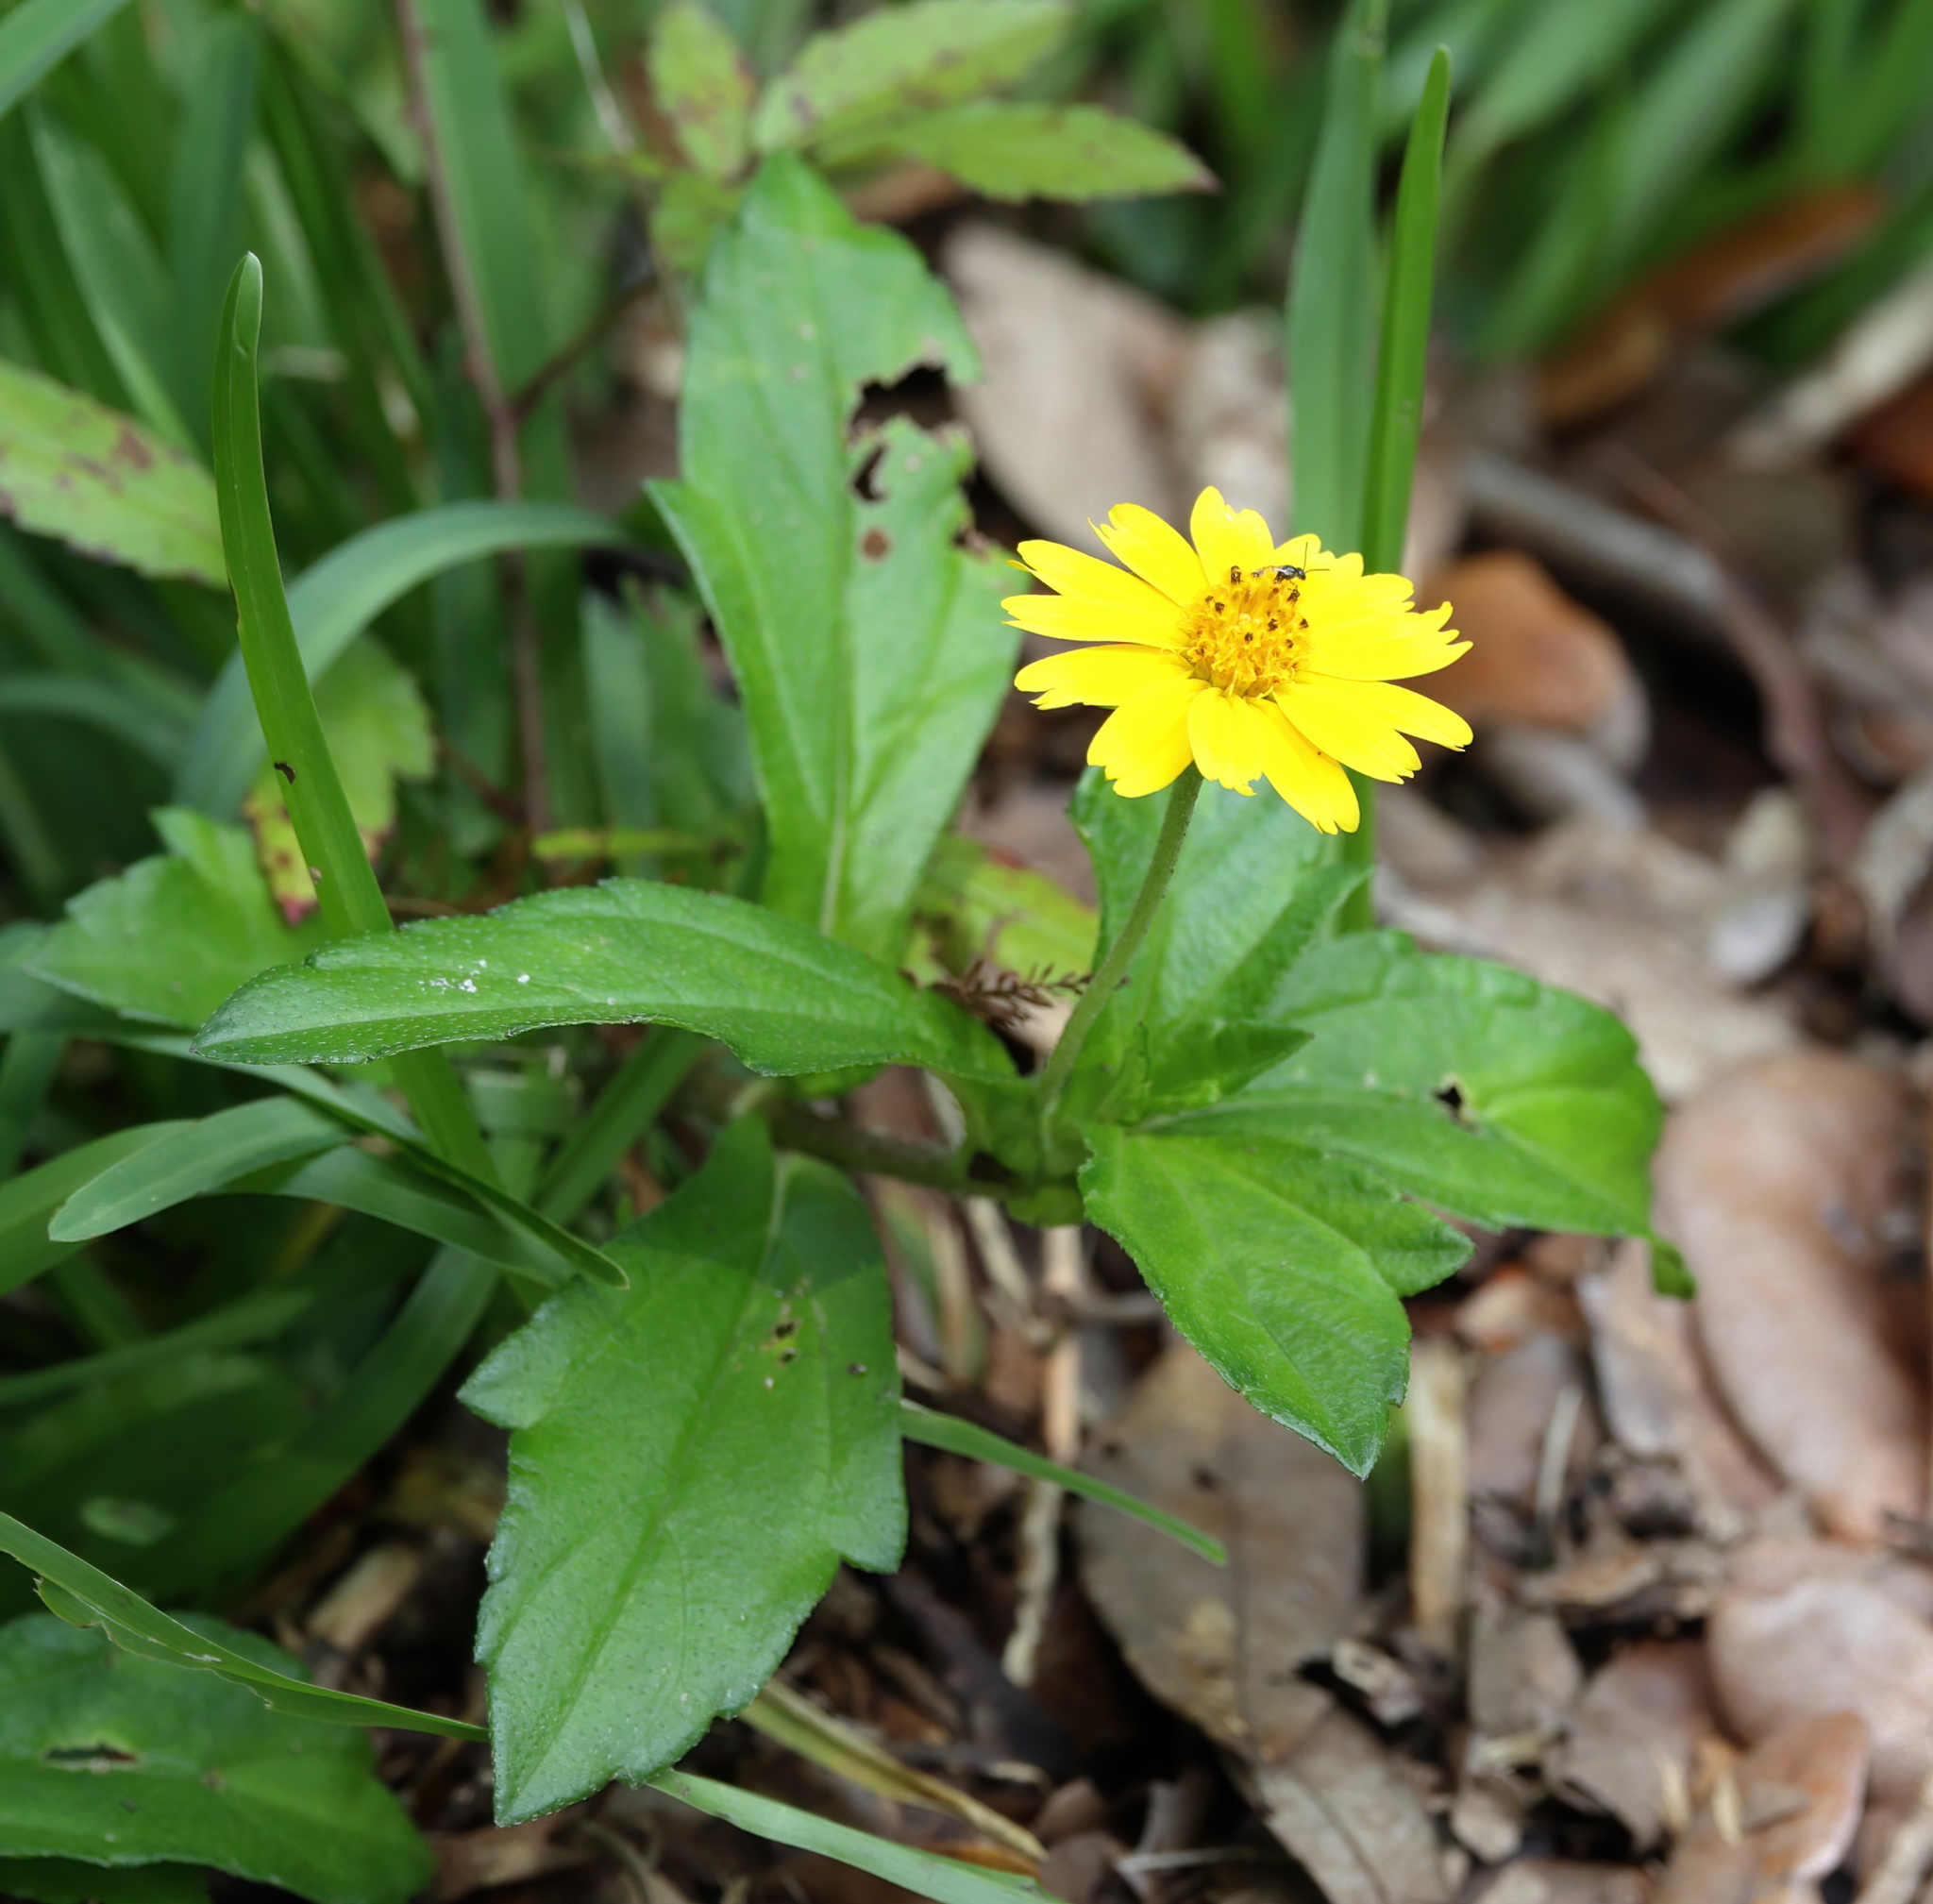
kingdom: Plantae
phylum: Tracheophyta
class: Magnoliopsida
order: Asterales
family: Asteraceae
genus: Sphagneticola
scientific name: Sphagneticola trilobata
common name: Bay biscayne creeping-oxeye
